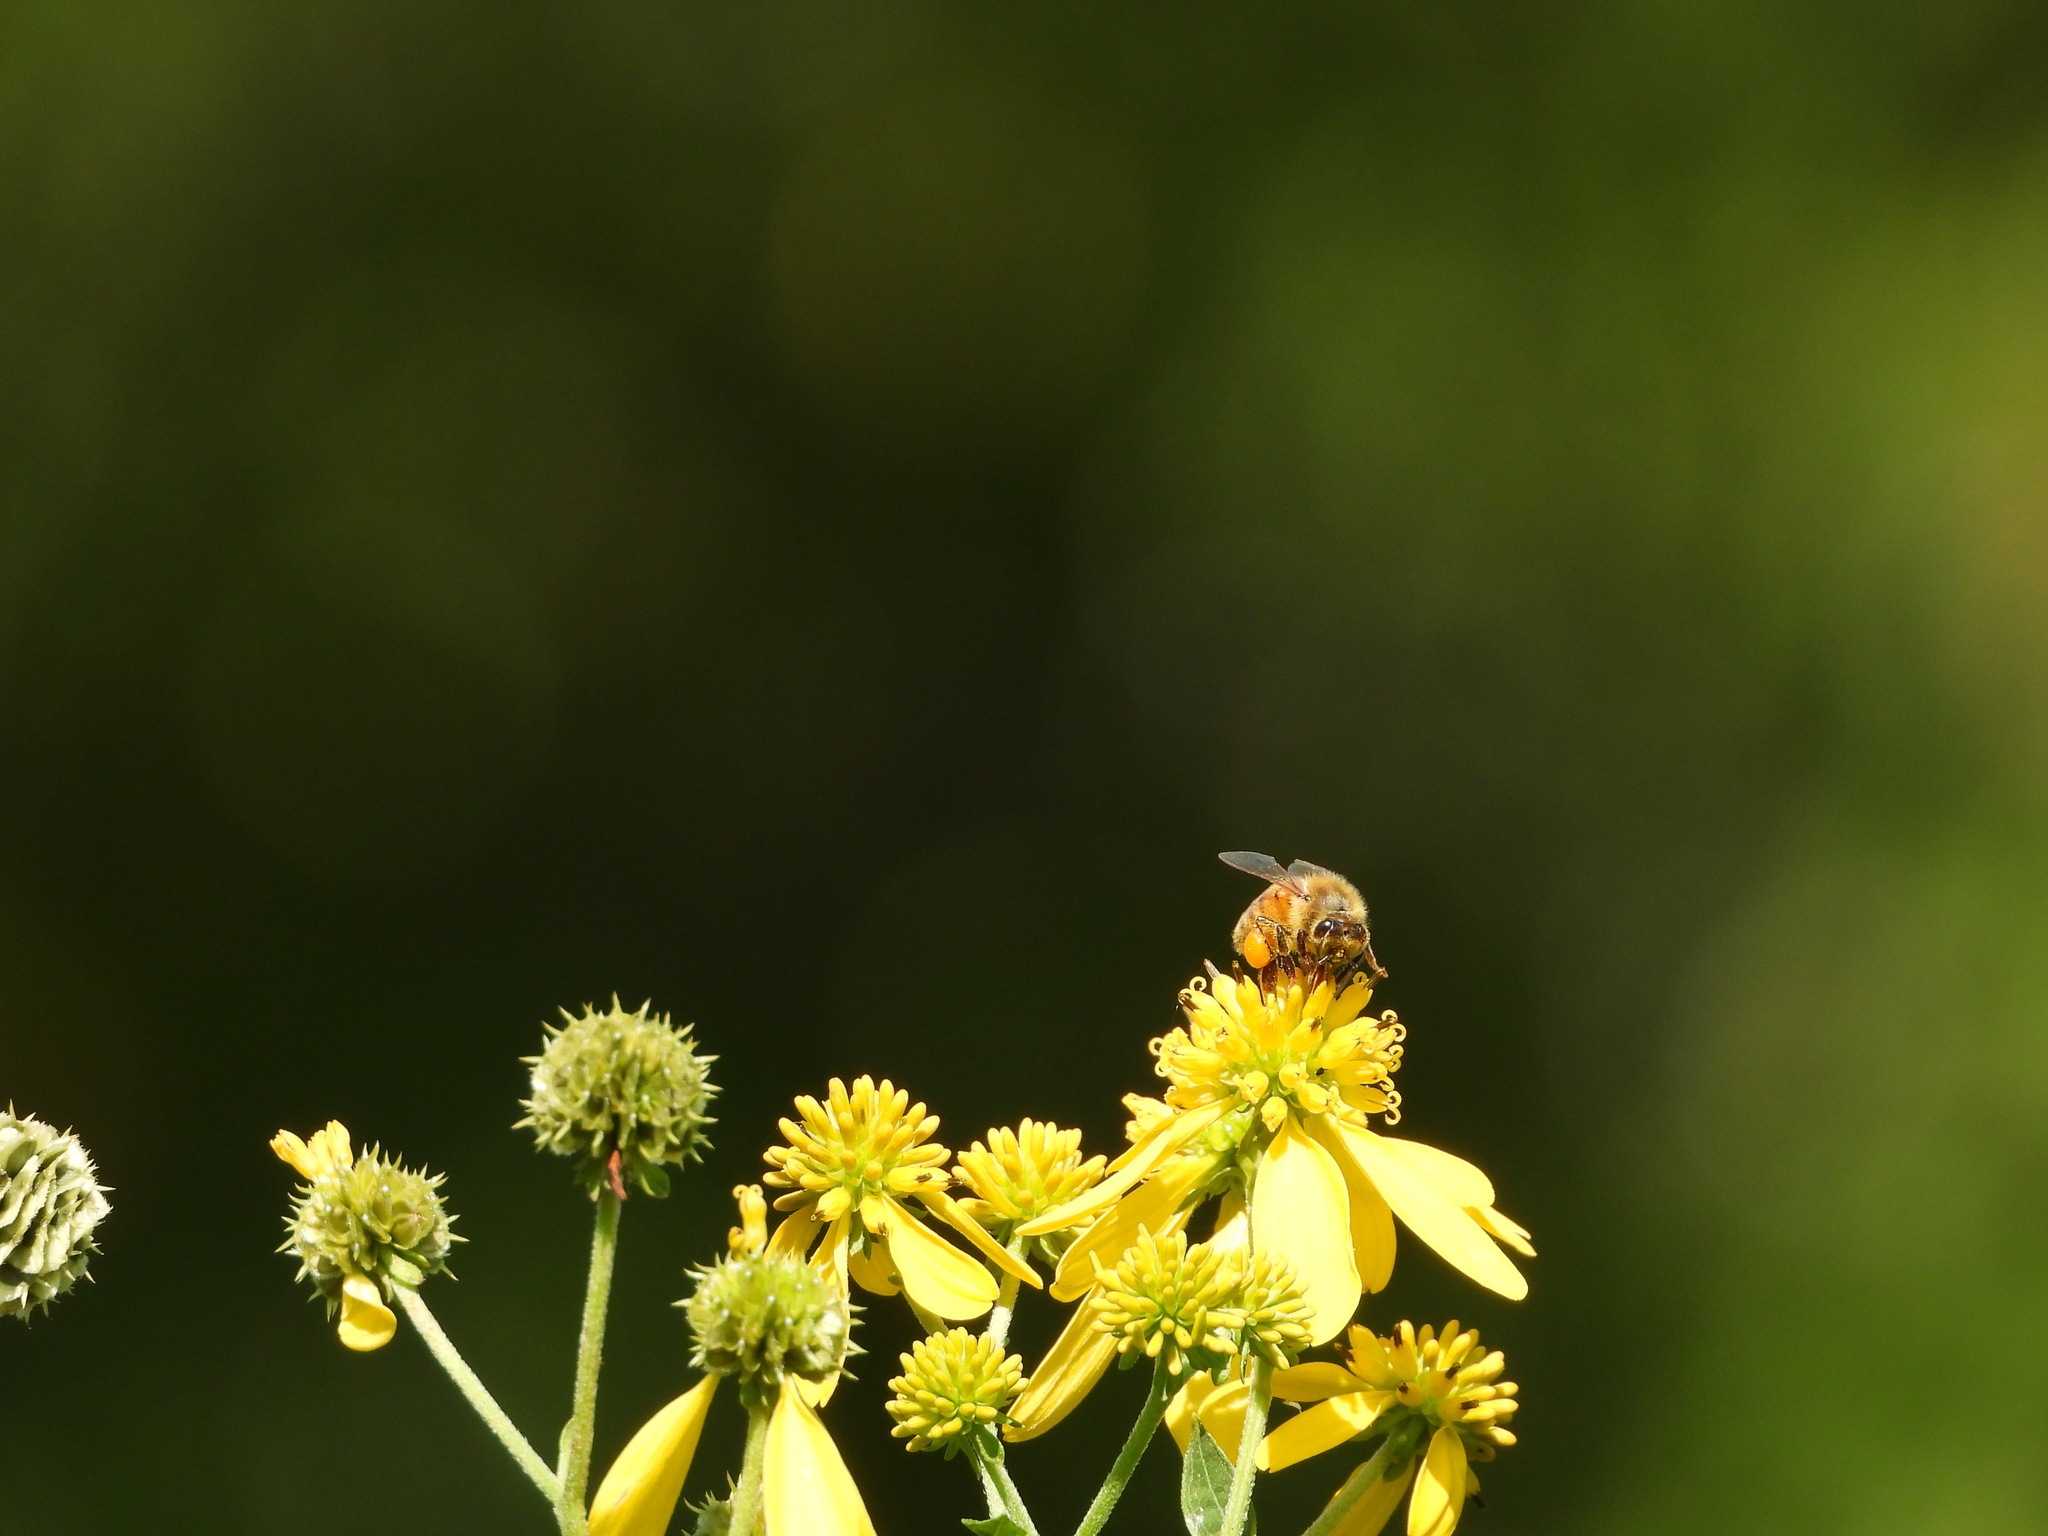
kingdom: Animalia
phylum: Arthropoda
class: Insecta
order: Hymenoptera
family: Apidae
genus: Apis
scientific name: Apis mellifera
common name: Honey bee
